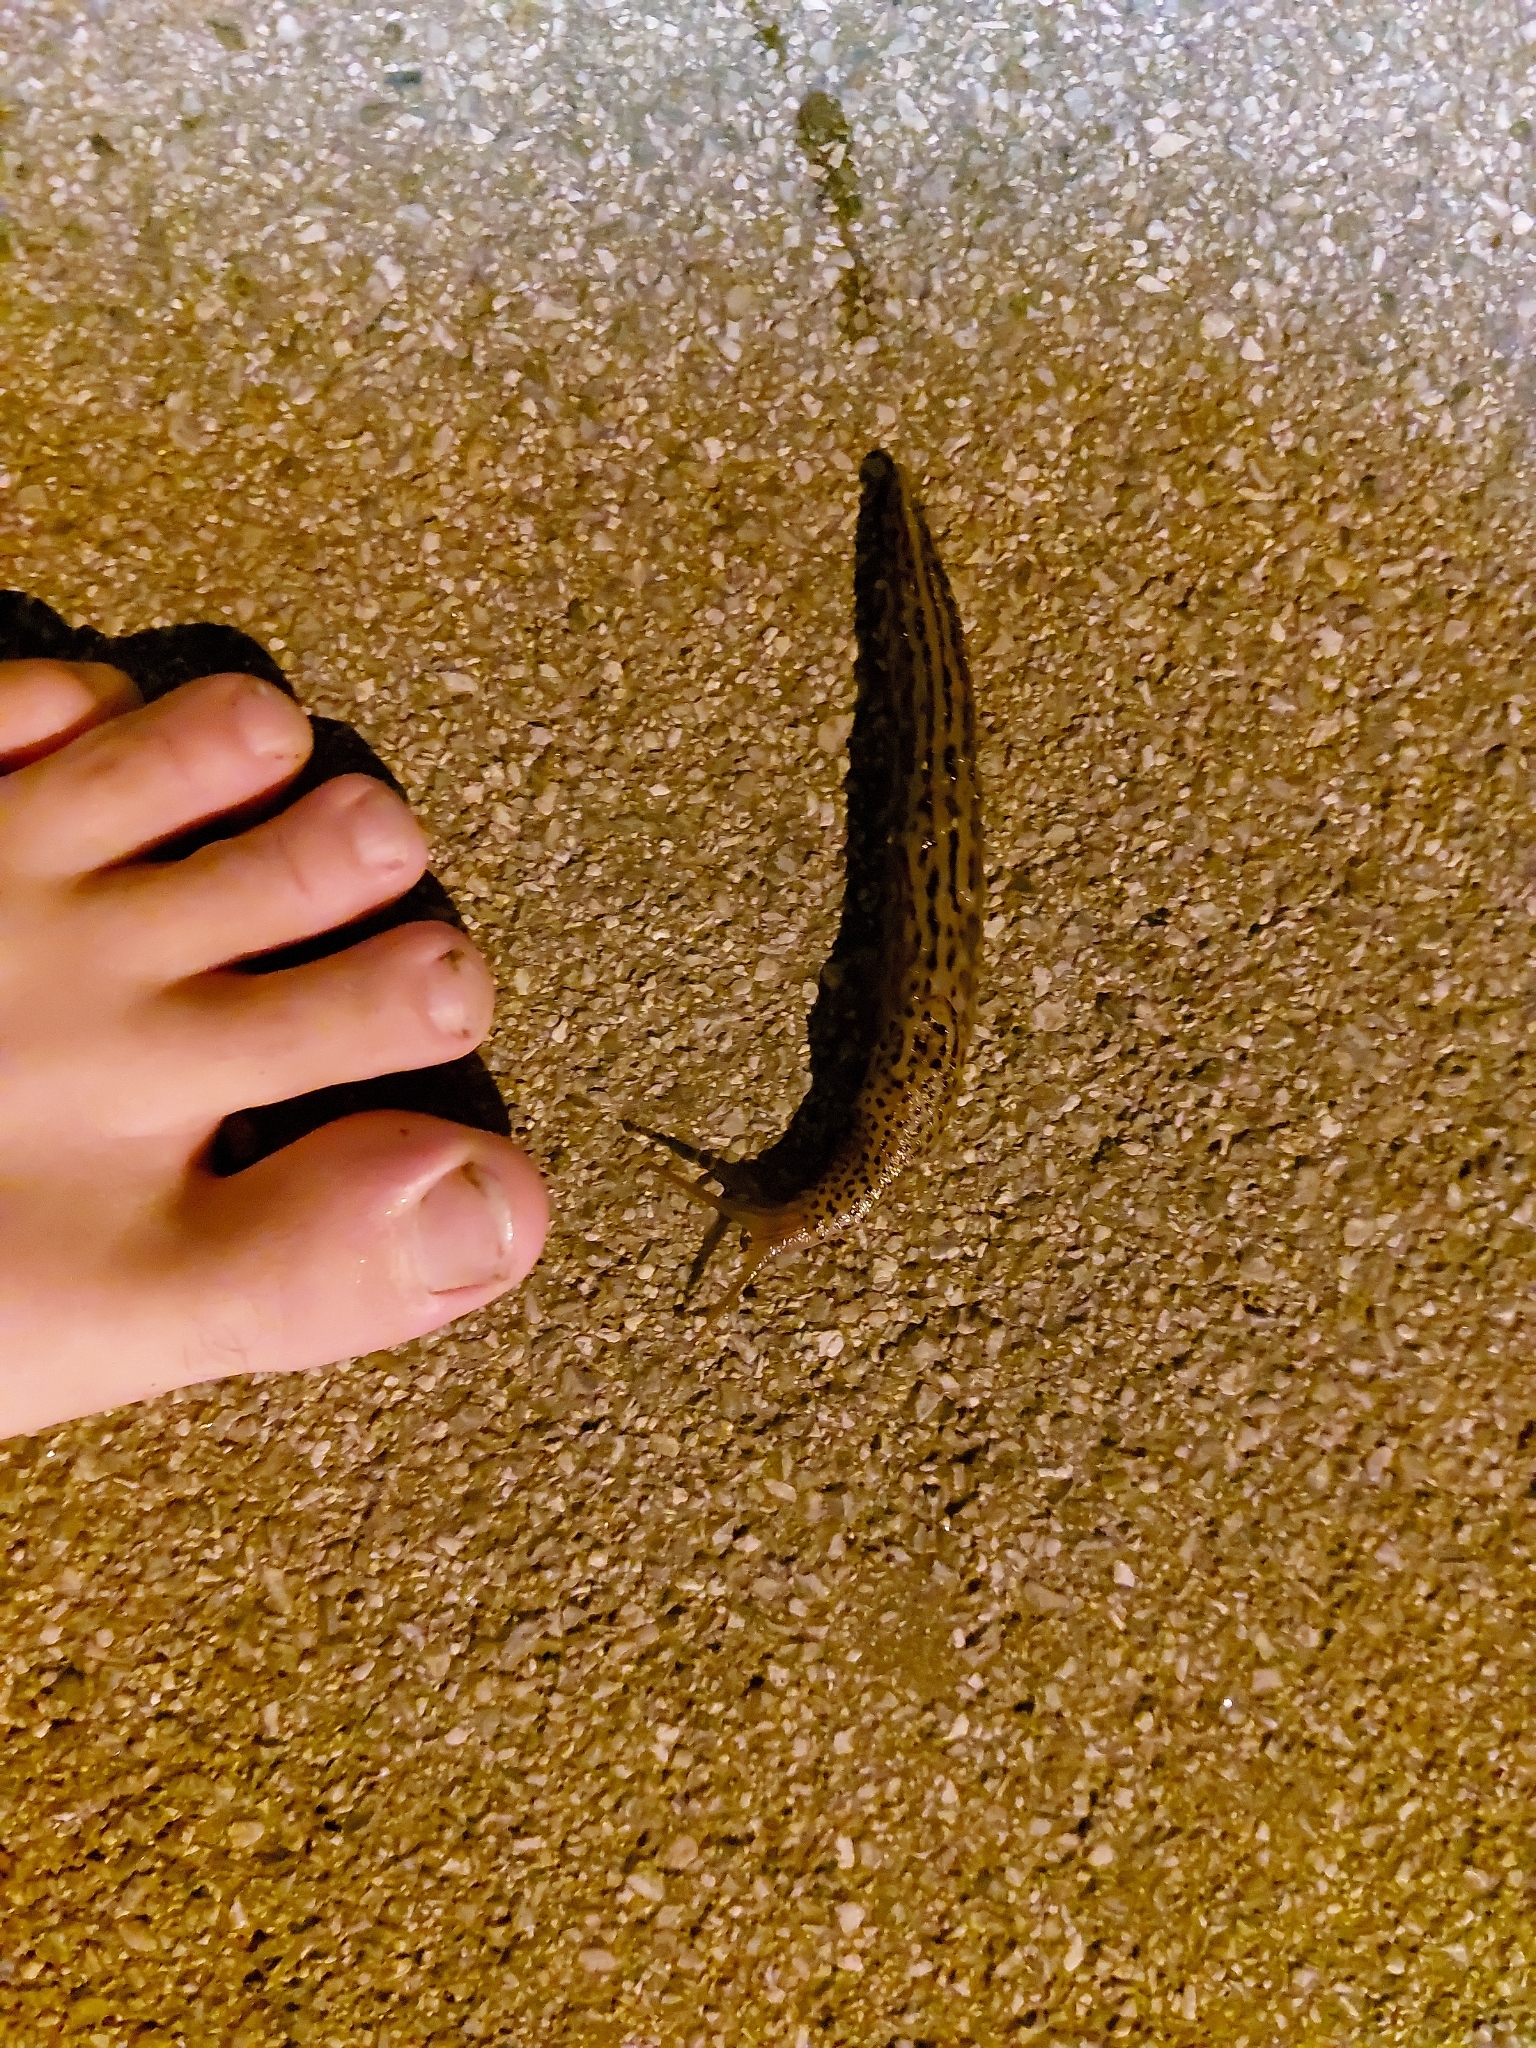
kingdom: Animalia
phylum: Mollusca
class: Gastropoda
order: Stylommatophora
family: Limacidae
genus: Limax
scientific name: Limax maximus
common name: Great grey slug
